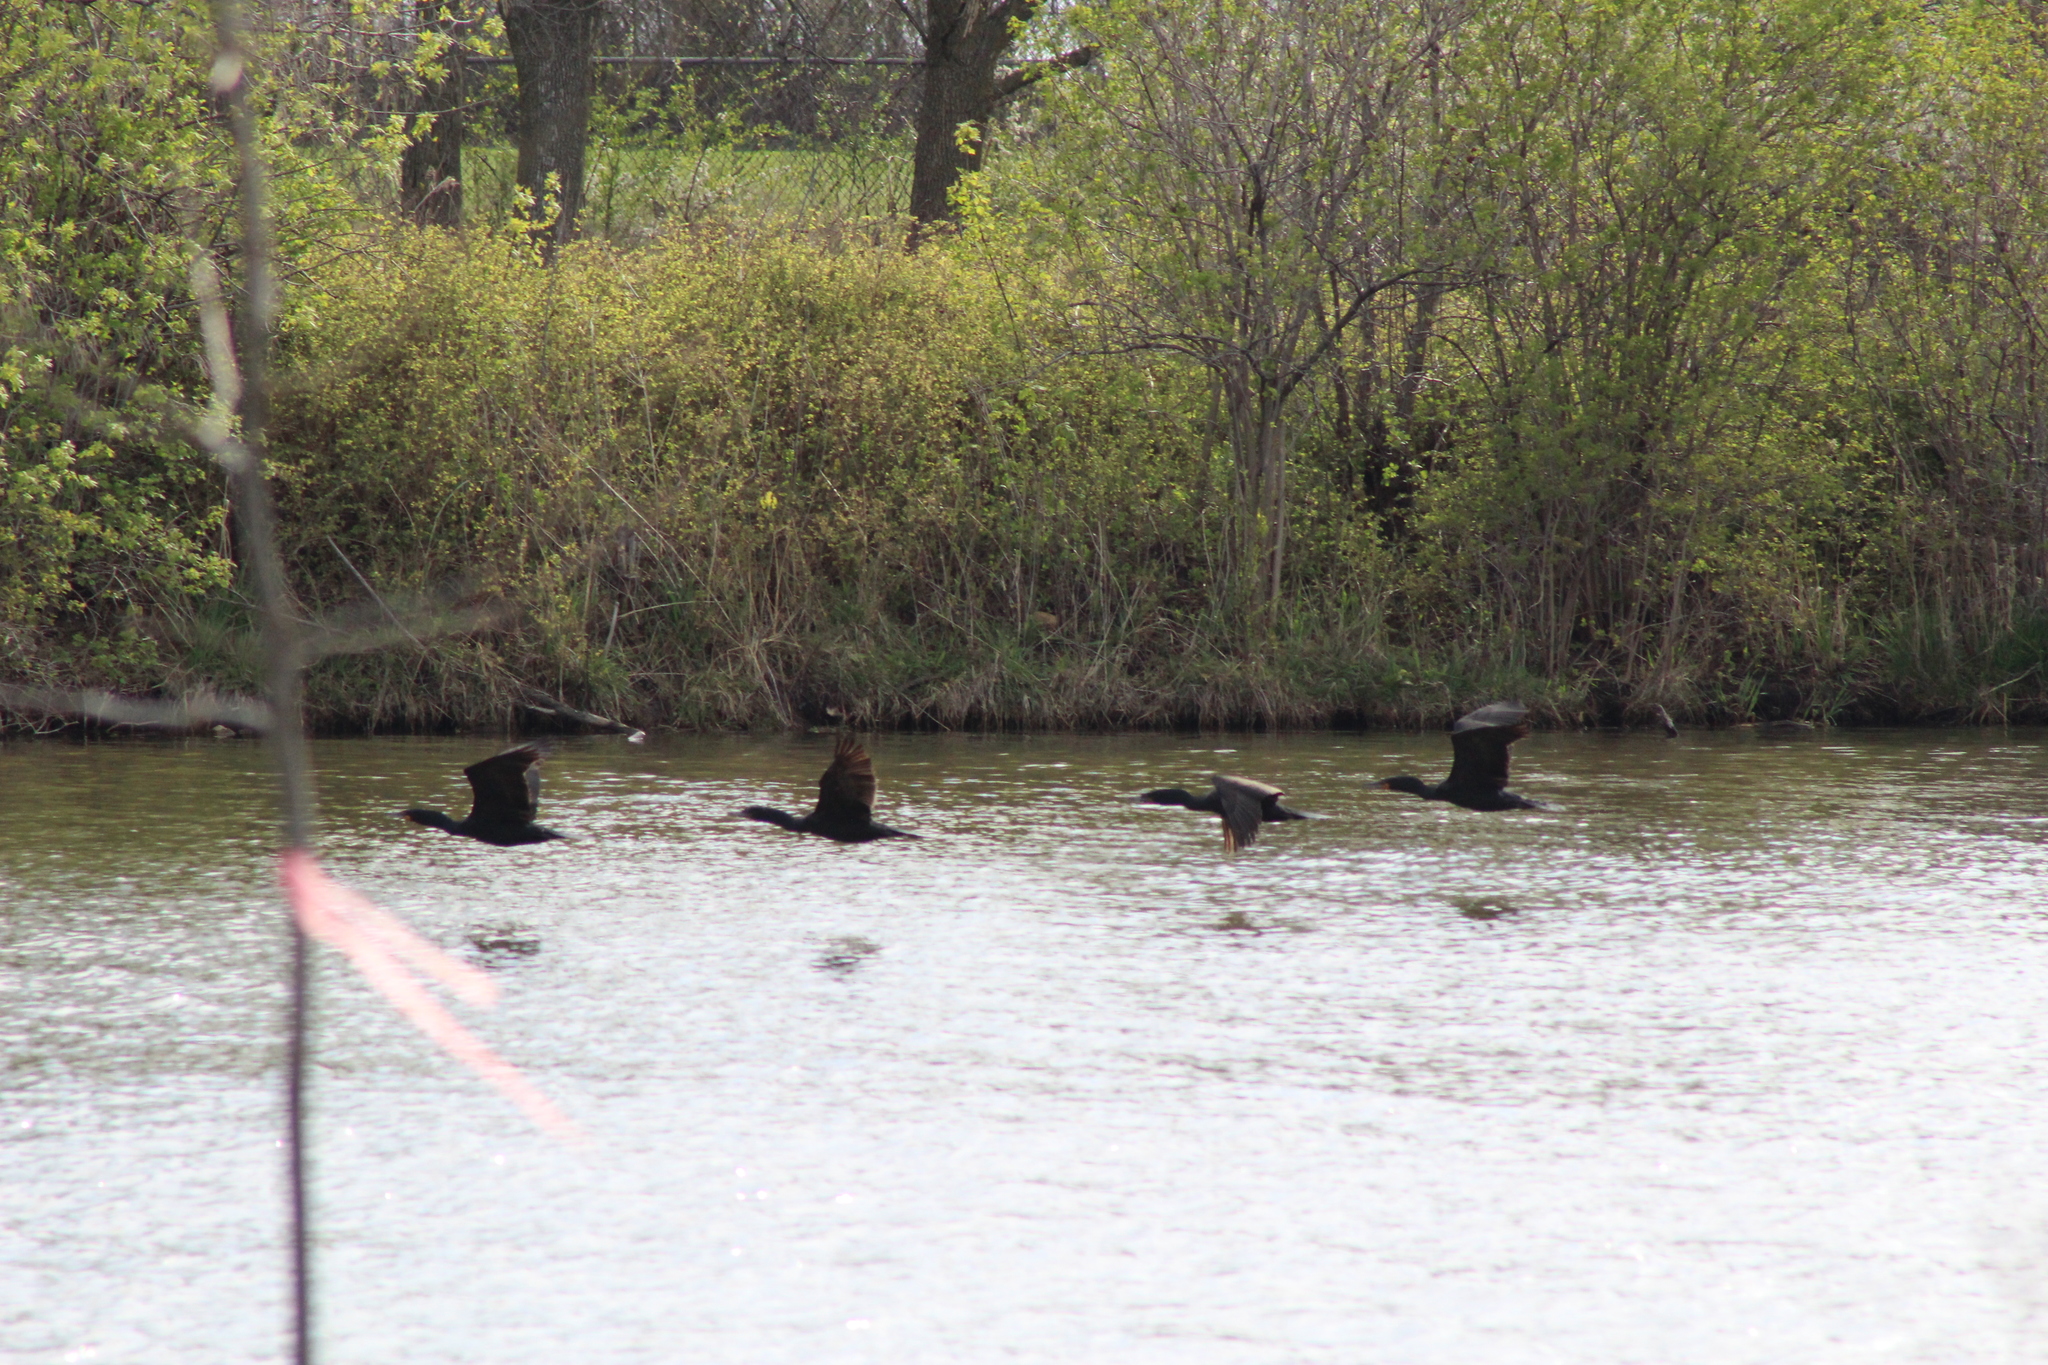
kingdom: Animalia
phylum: Chordata
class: Aves
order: Suliformes
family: Phalacrocoracidae
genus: Phalacrocorax
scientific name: Phalacrocorax auritus
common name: Double-crested cormorant
